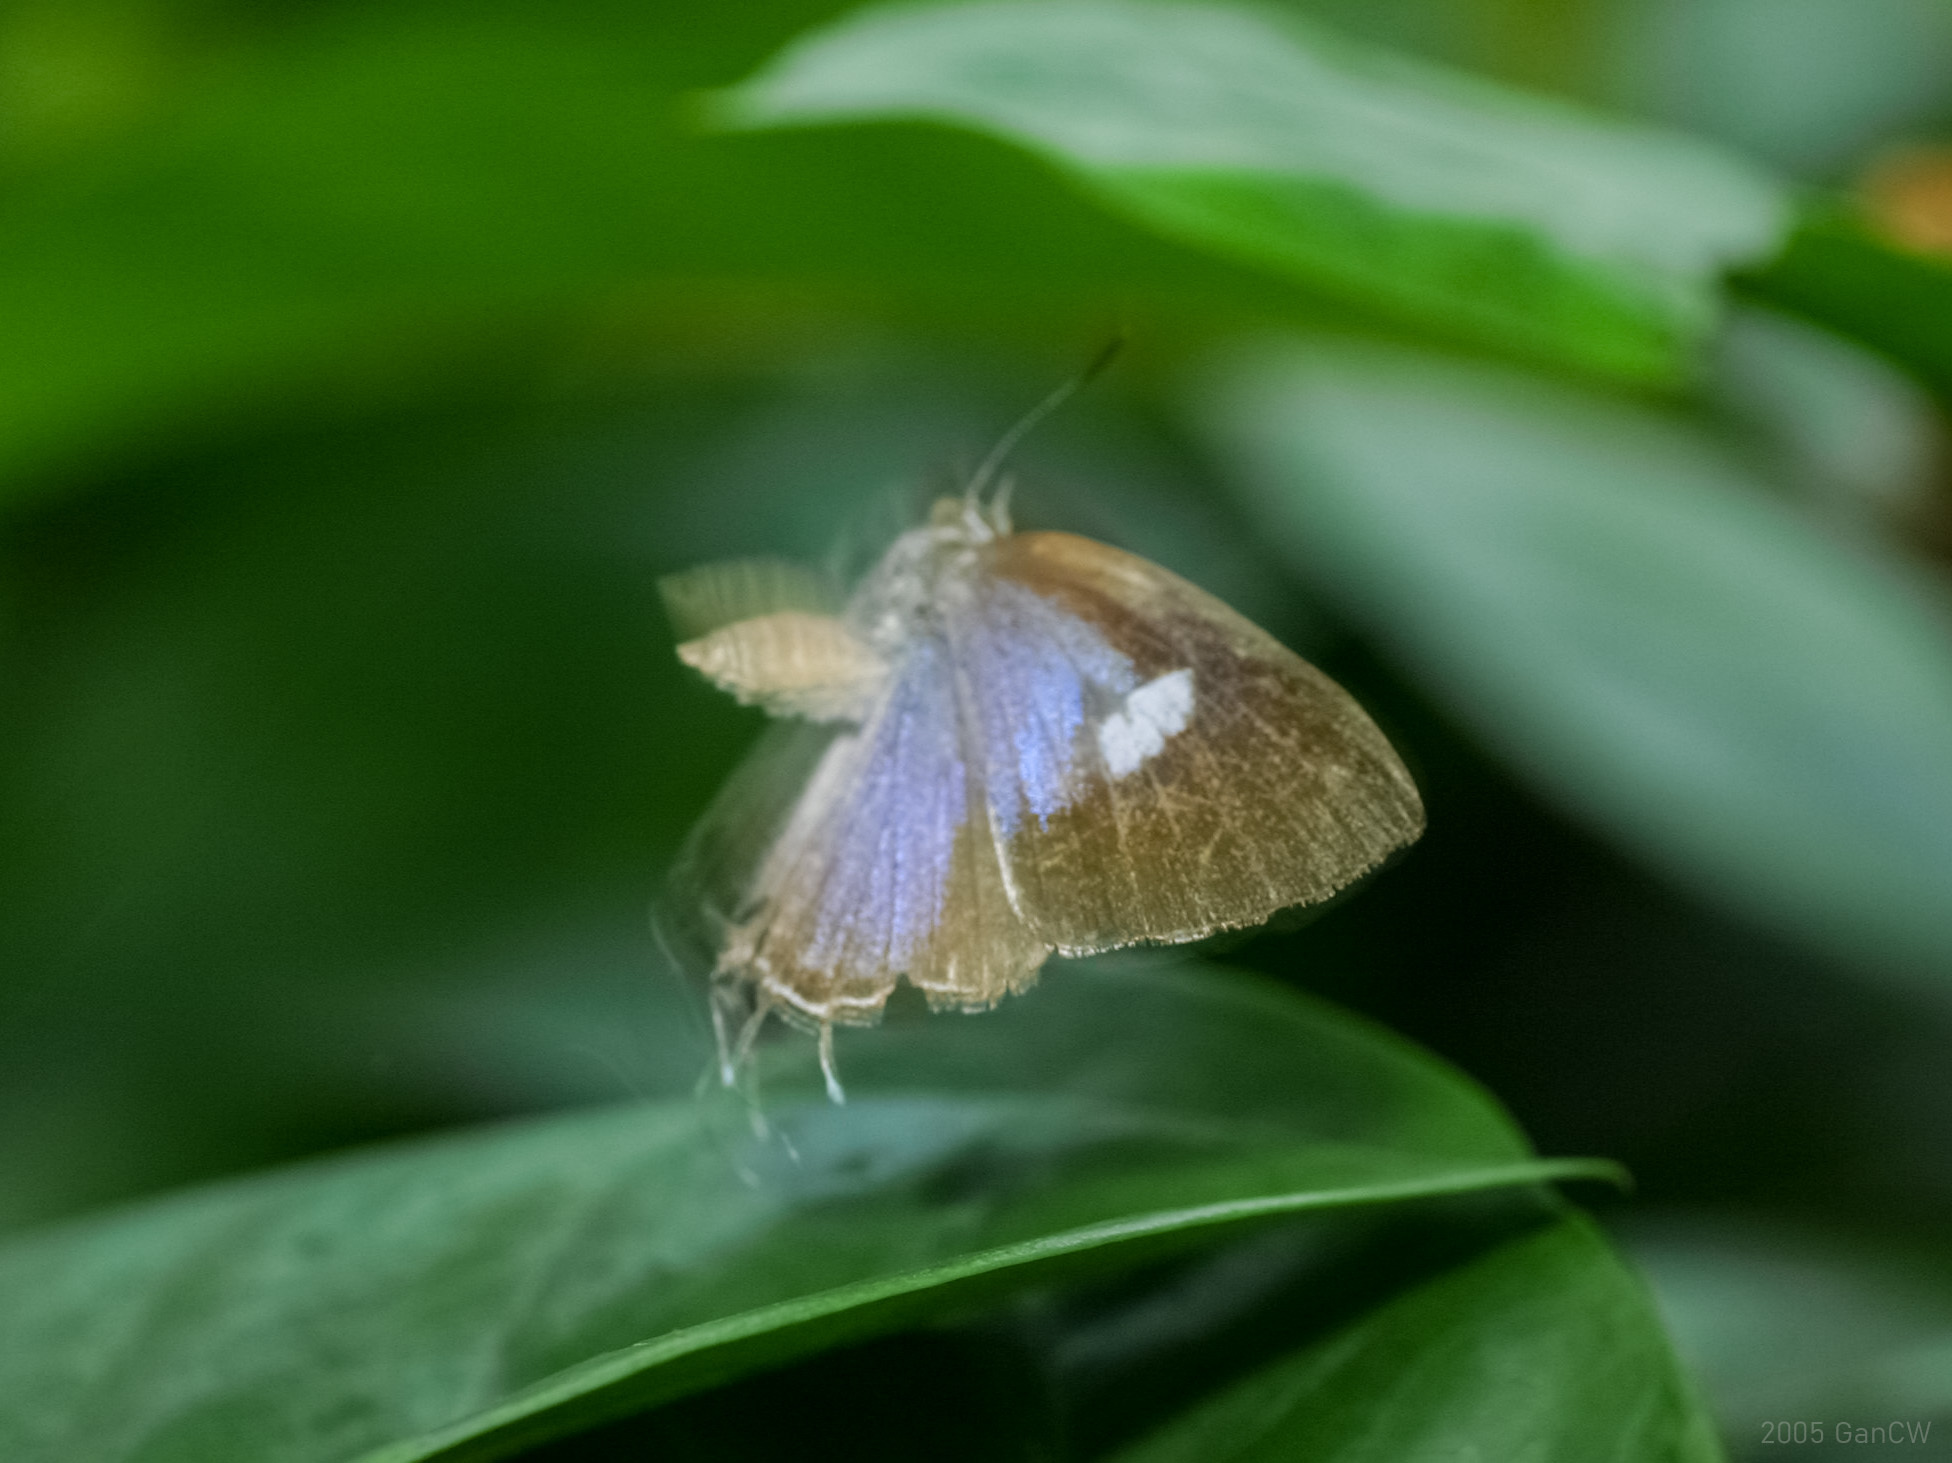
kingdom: Animalia
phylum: Arthropoda
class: Insecta
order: Lepidoptera
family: Lycaenidae
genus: Horaga
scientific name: Horaga syrinx
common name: Ambon onyx
